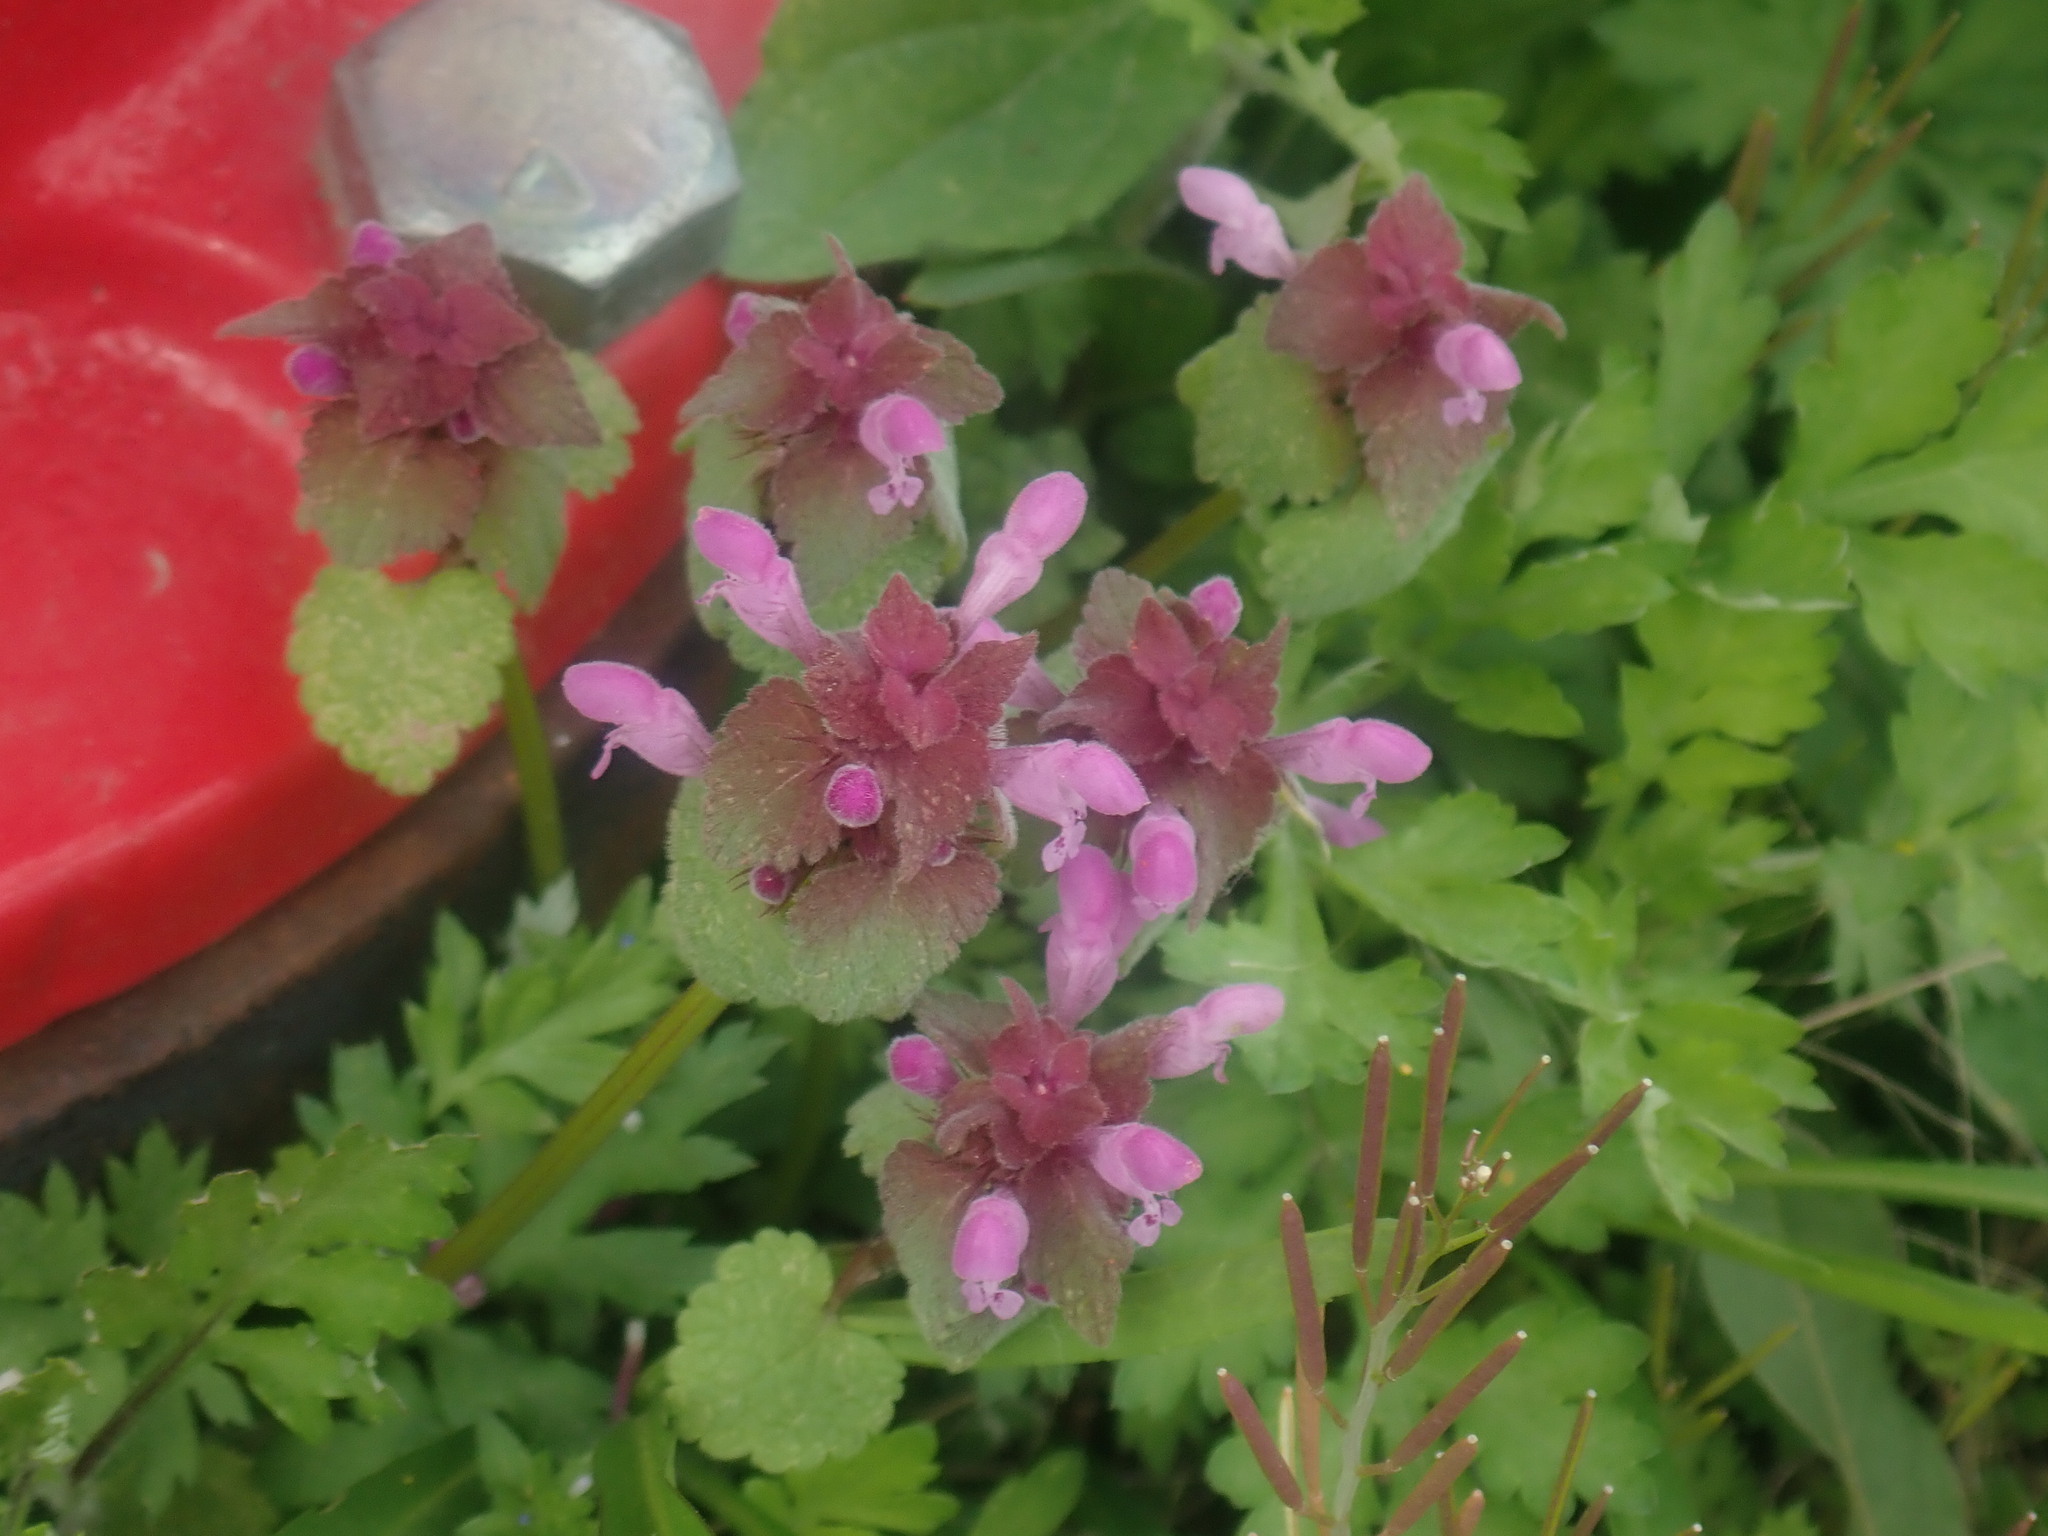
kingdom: Plantae
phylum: Tracheophyta
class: Magnoliopsida
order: Lamiales
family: Lamiaceae
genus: Lamium
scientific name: Lamium purpureum
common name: Red dead-nettle
